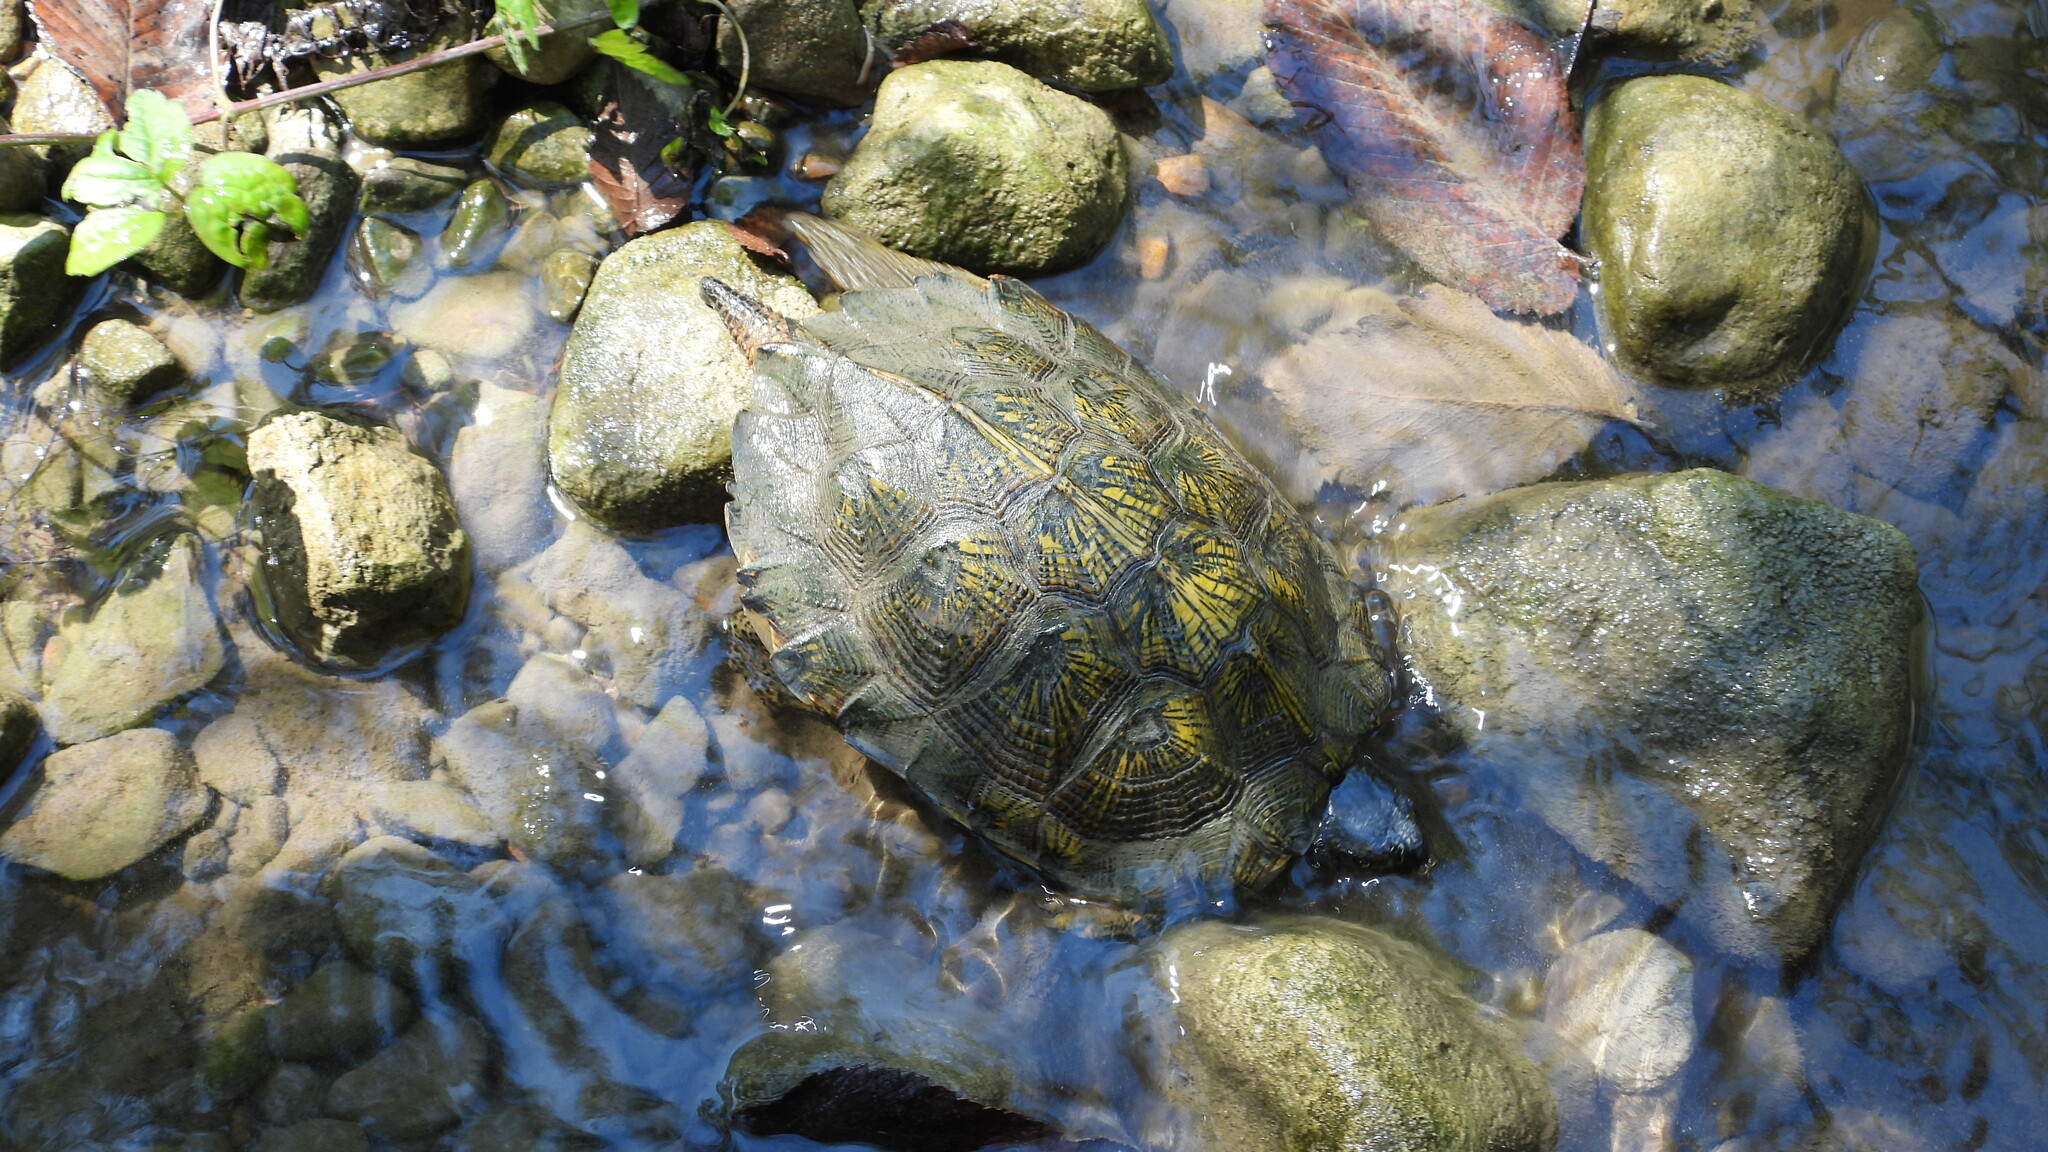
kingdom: Animalia
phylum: Chordata
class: Testudines
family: Emydidae
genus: Glyptemys
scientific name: Glyptemys insculpta
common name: Wood turtle
